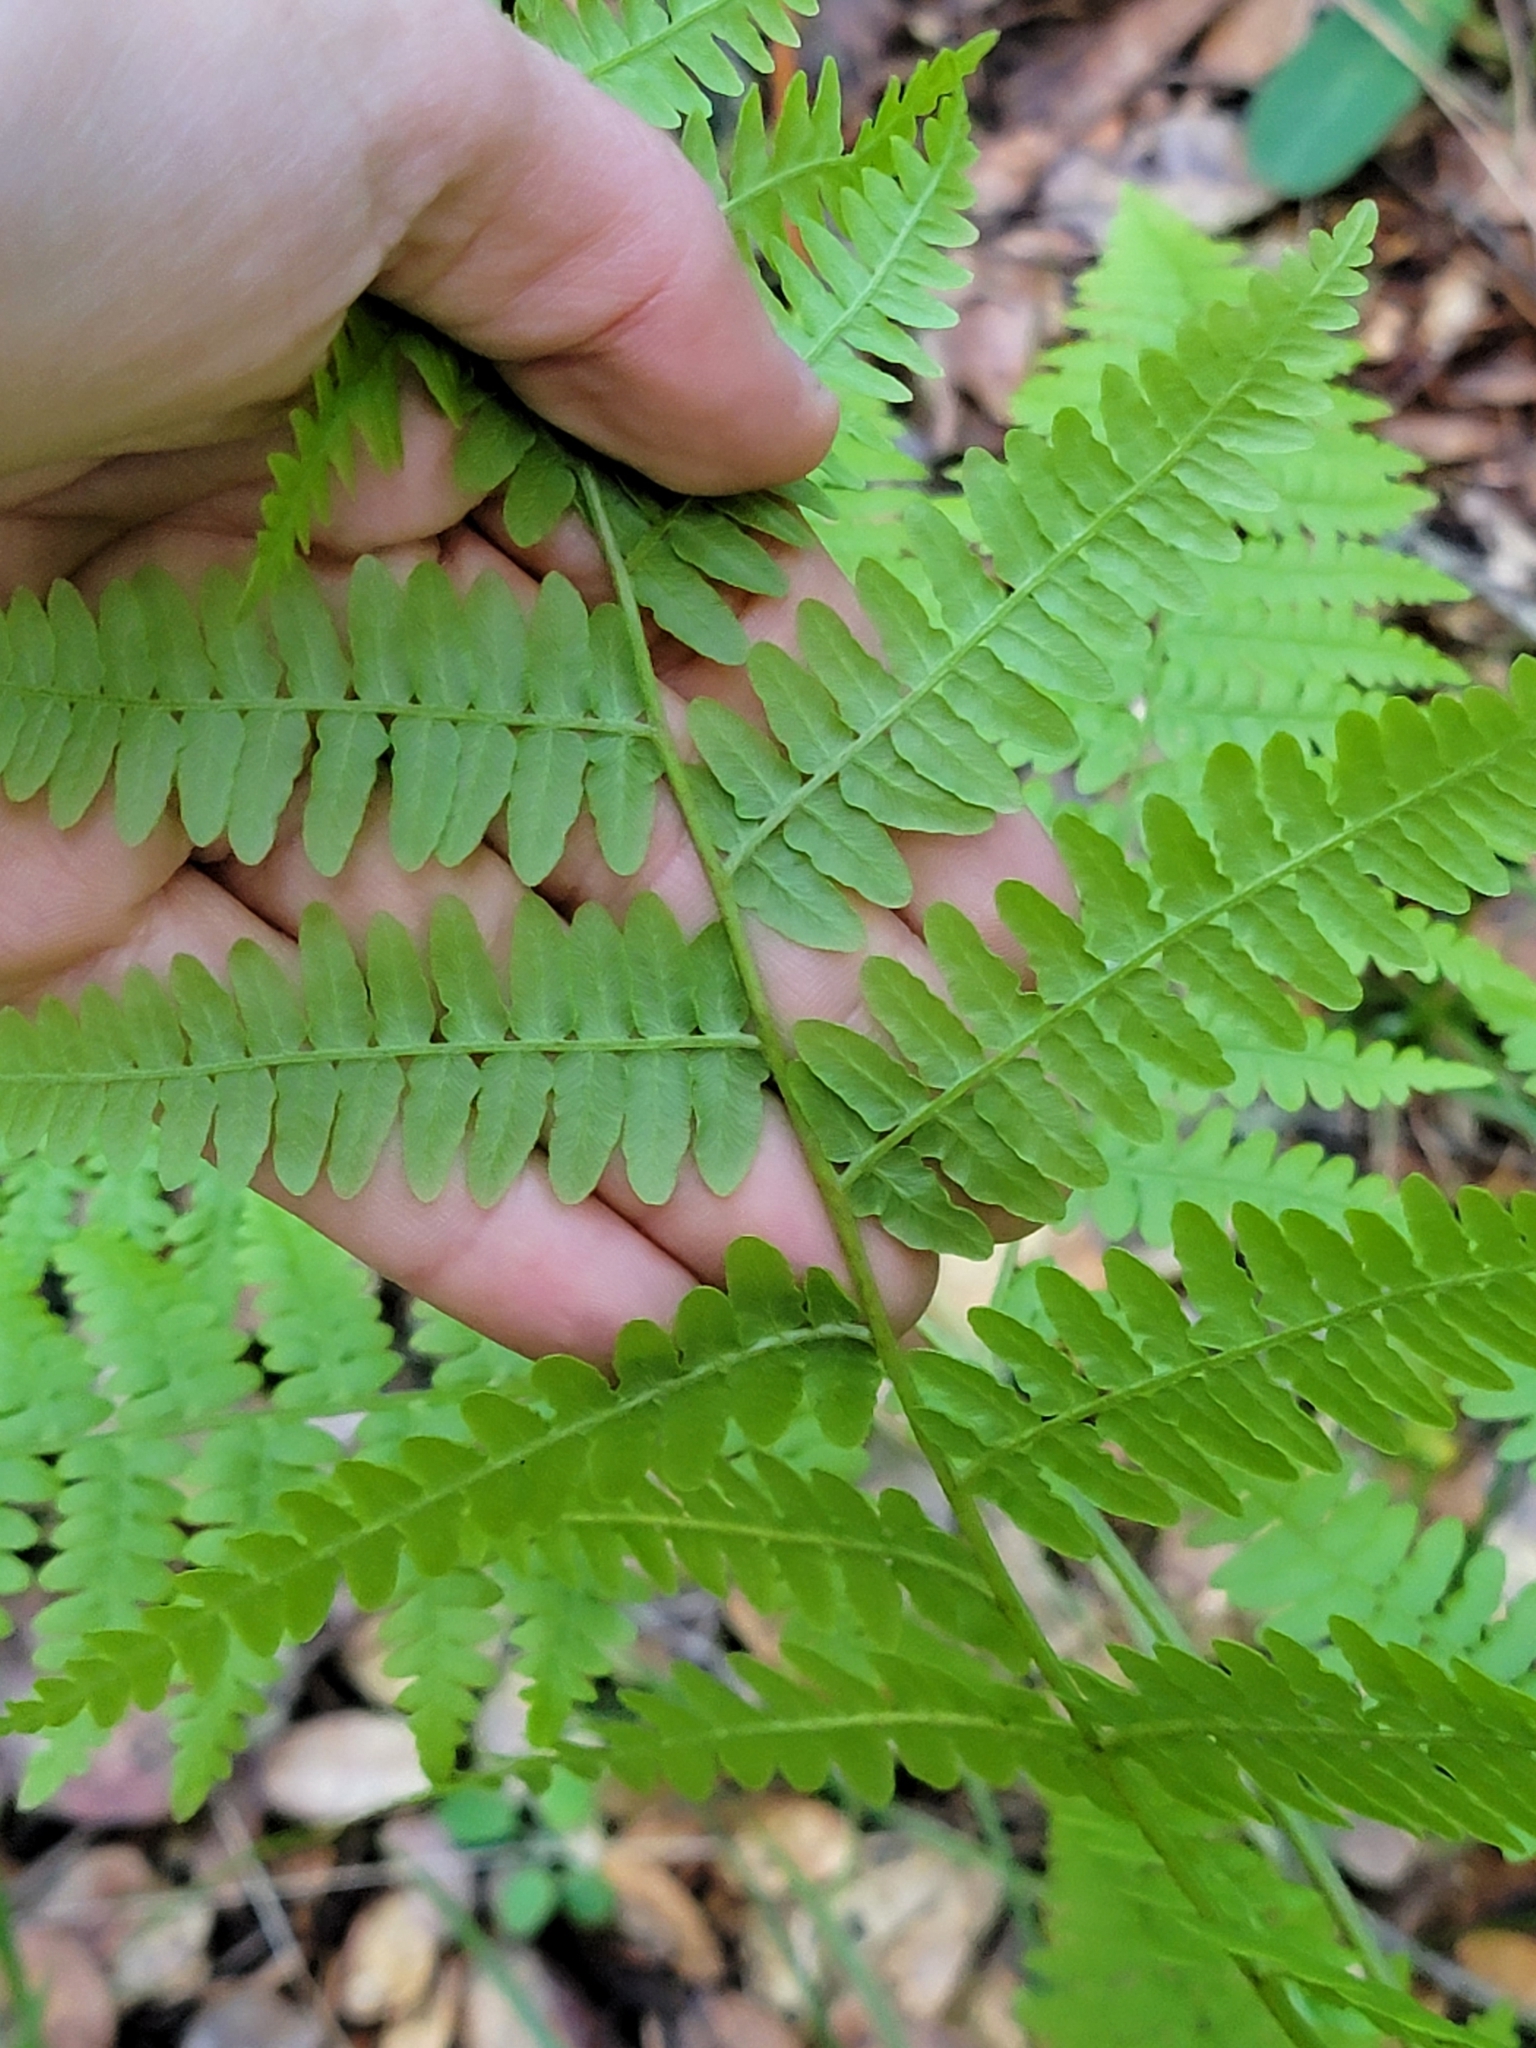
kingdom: Plantae
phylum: Tracheophyta
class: Polypodiopsida
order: Polypodiales
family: Dennstaedtiaceae
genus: Pteridium
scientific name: Pteridium aquilinum
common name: Bracken
